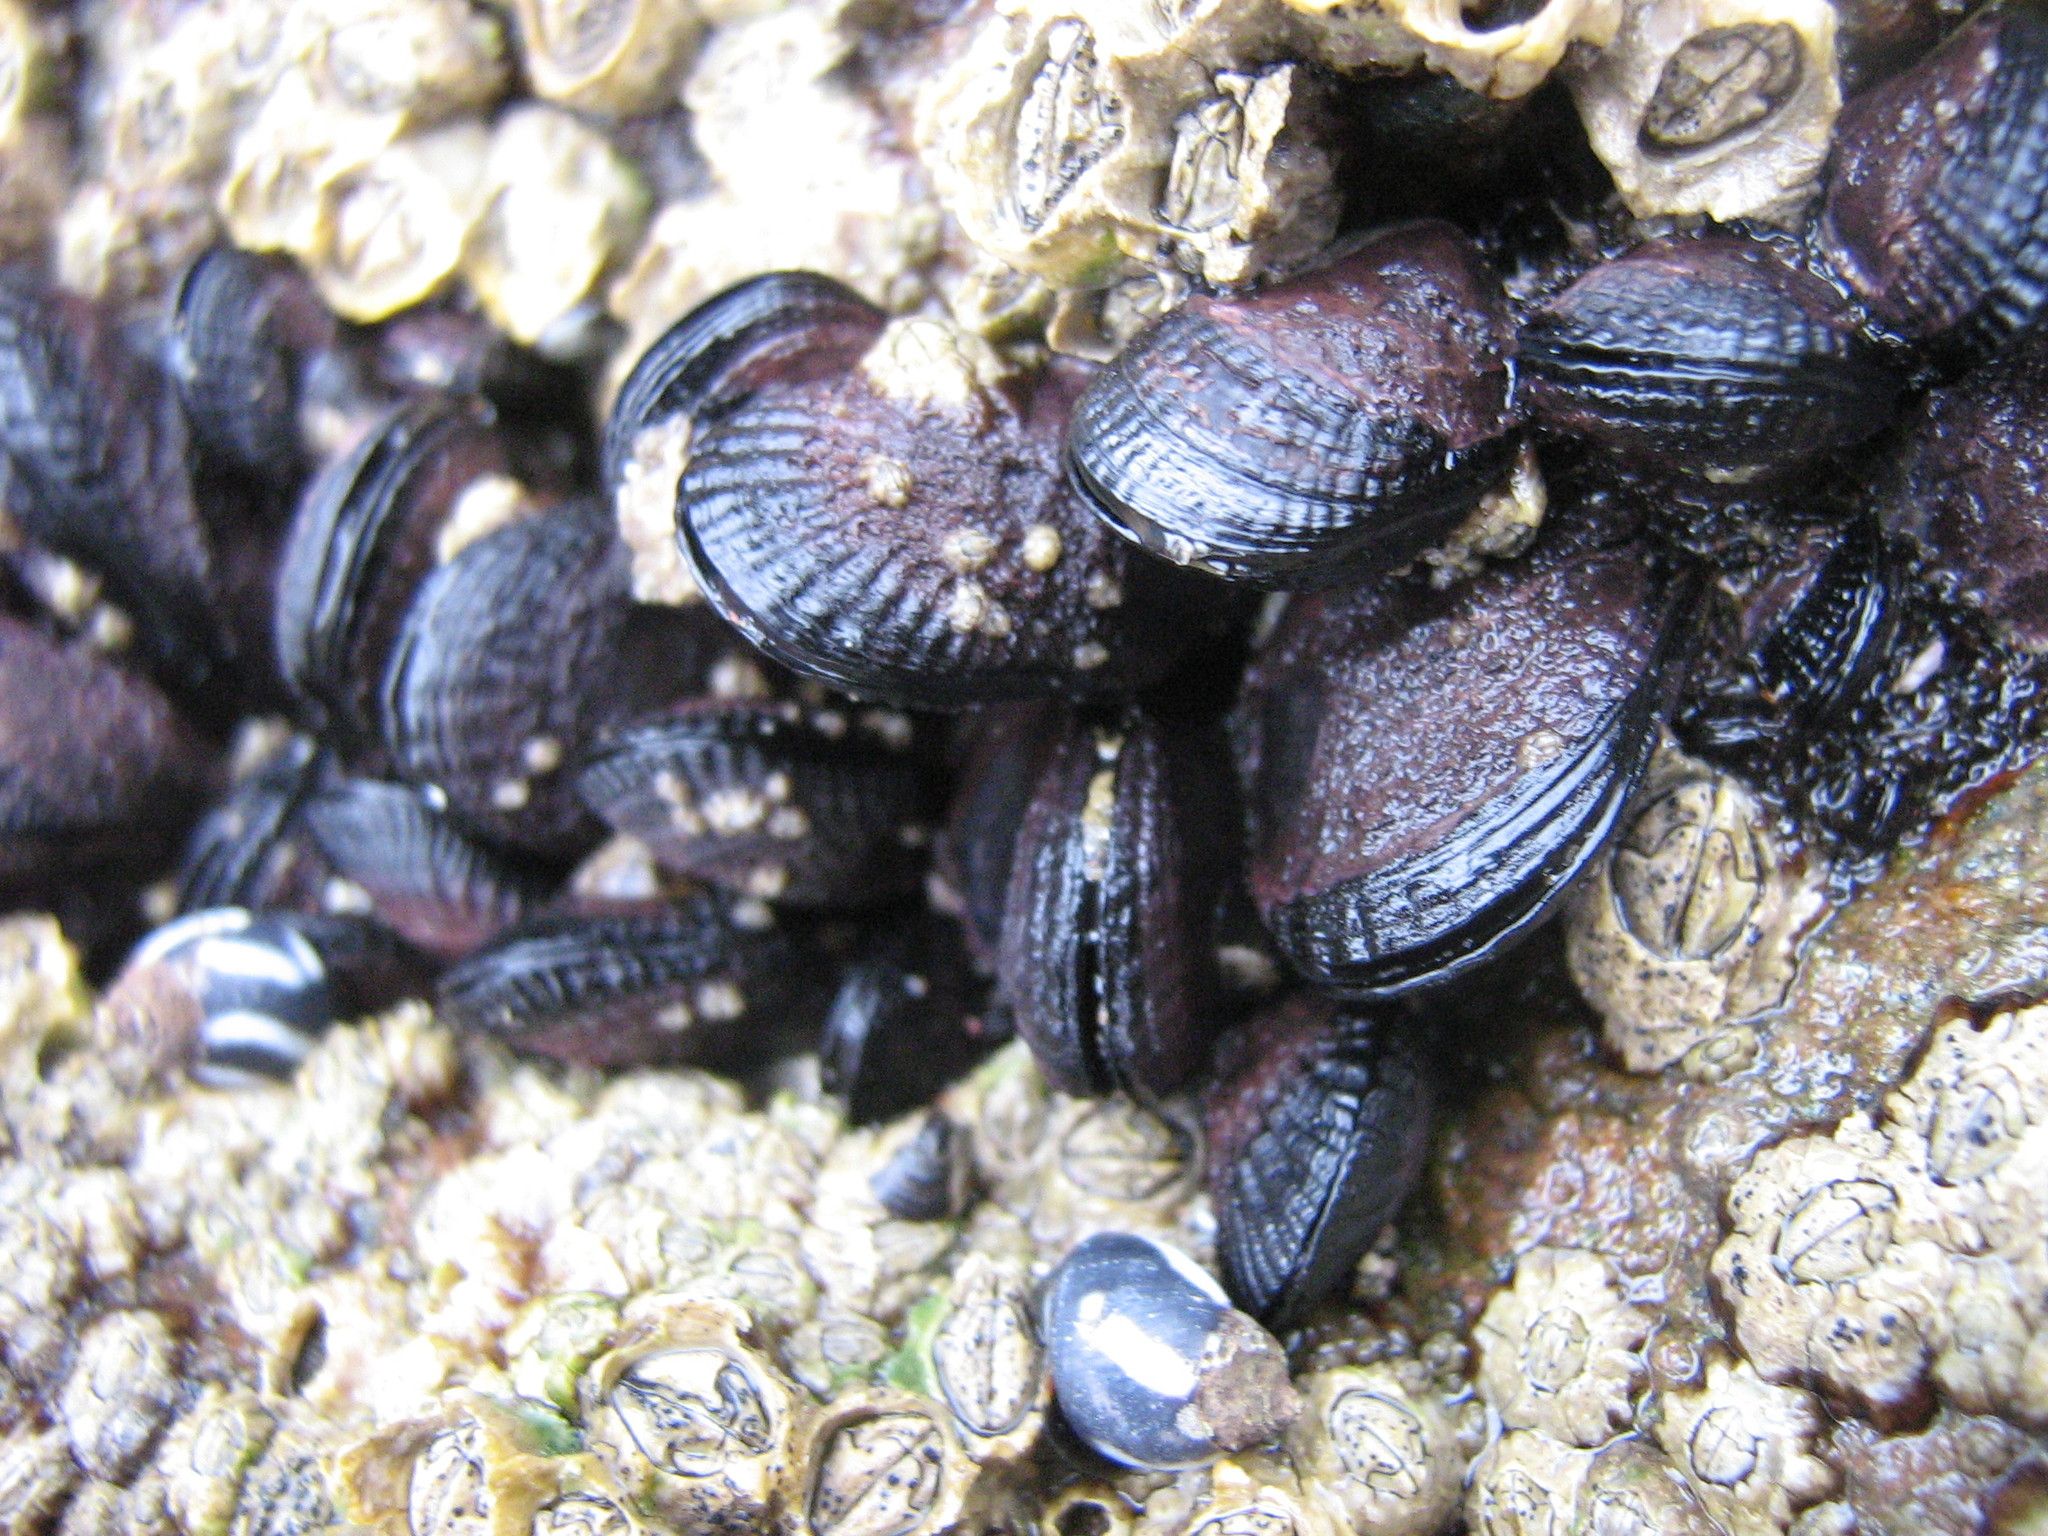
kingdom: Animalia
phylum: Mollusca
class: Bivalvia
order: Mytilida
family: Mytilidae
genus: Perumytilus
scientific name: Perumytilus purpuratus
